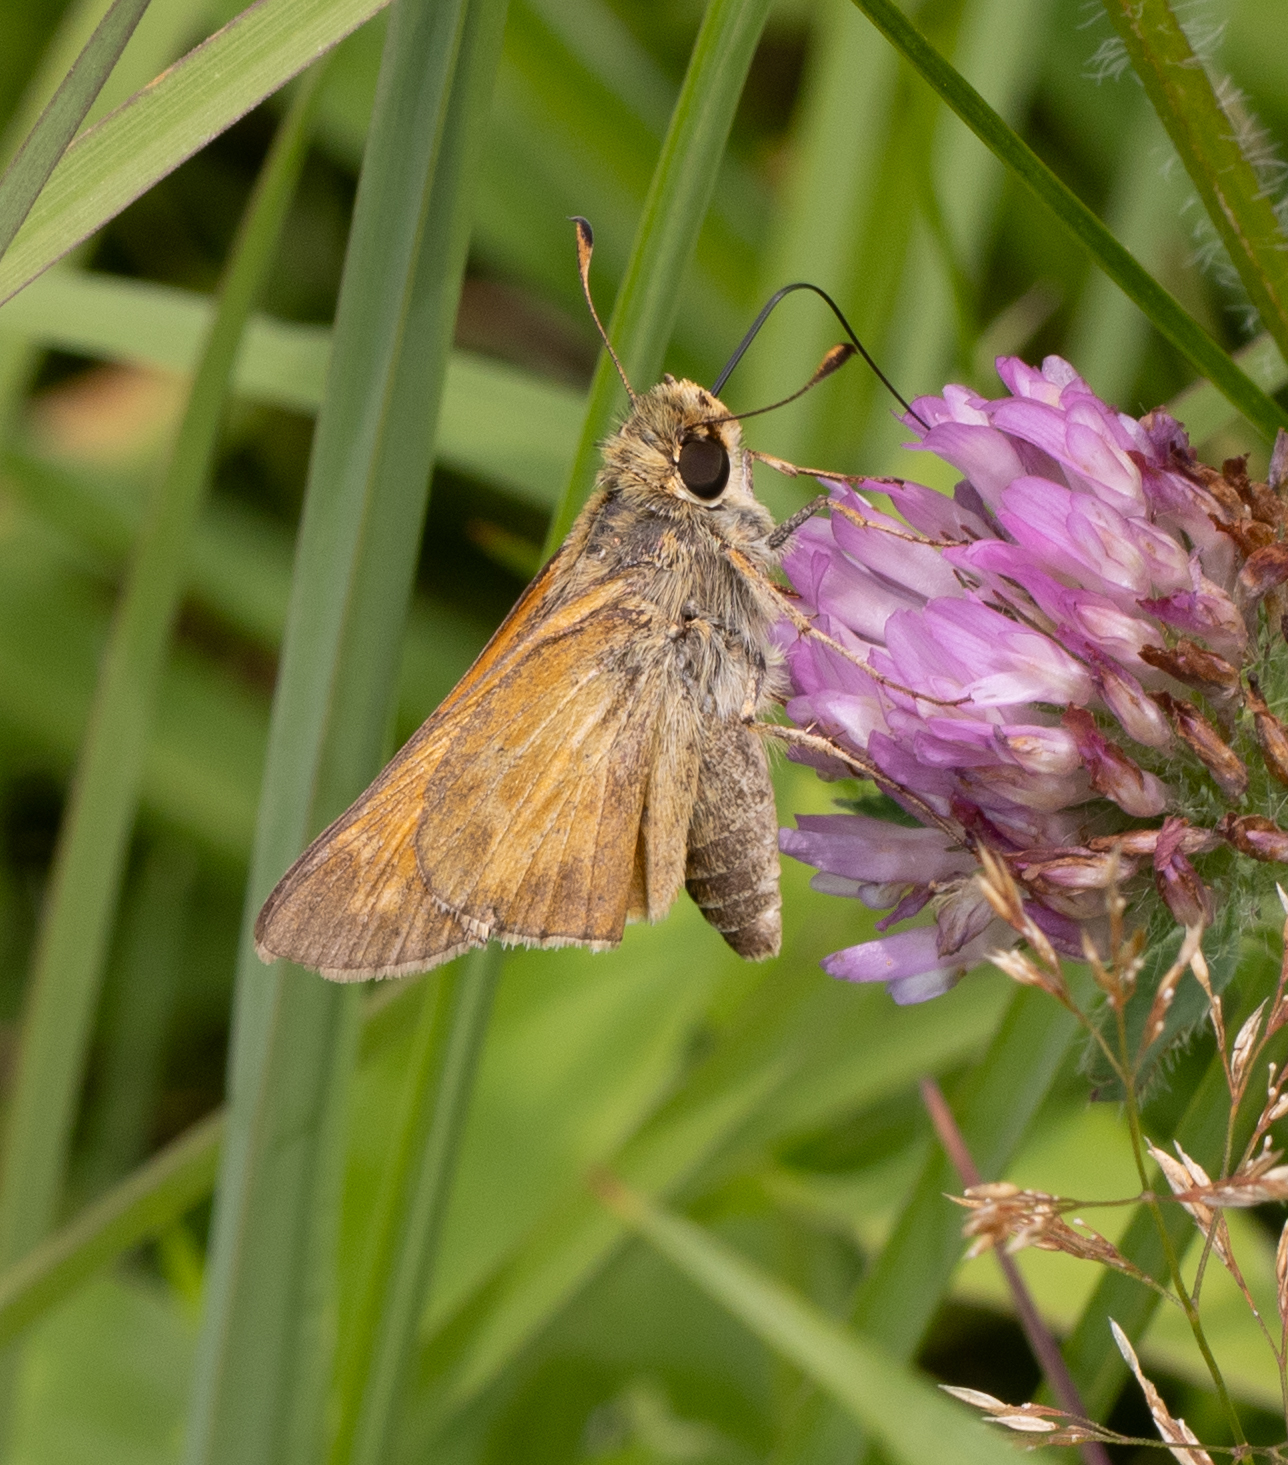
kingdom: Animalia
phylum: Arthropoda
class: Insecta
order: Lepidoptera
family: Hesperiidae
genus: Atalopedes
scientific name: Atalopedes
